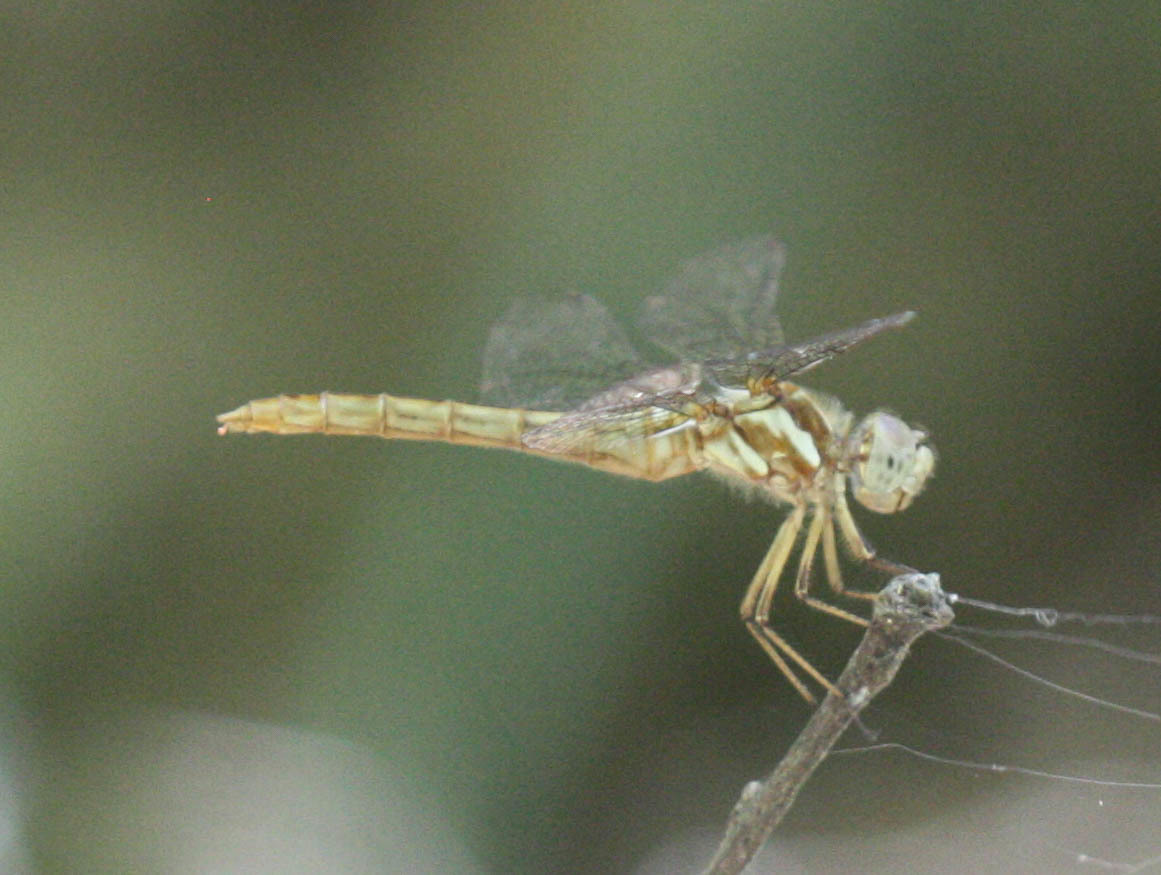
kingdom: Animalia
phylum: Arthropoda
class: Insecta
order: Odonata
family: Libellulidae
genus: Sympetrum
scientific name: Sympetrum pallipes
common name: Striped meadowhawk
